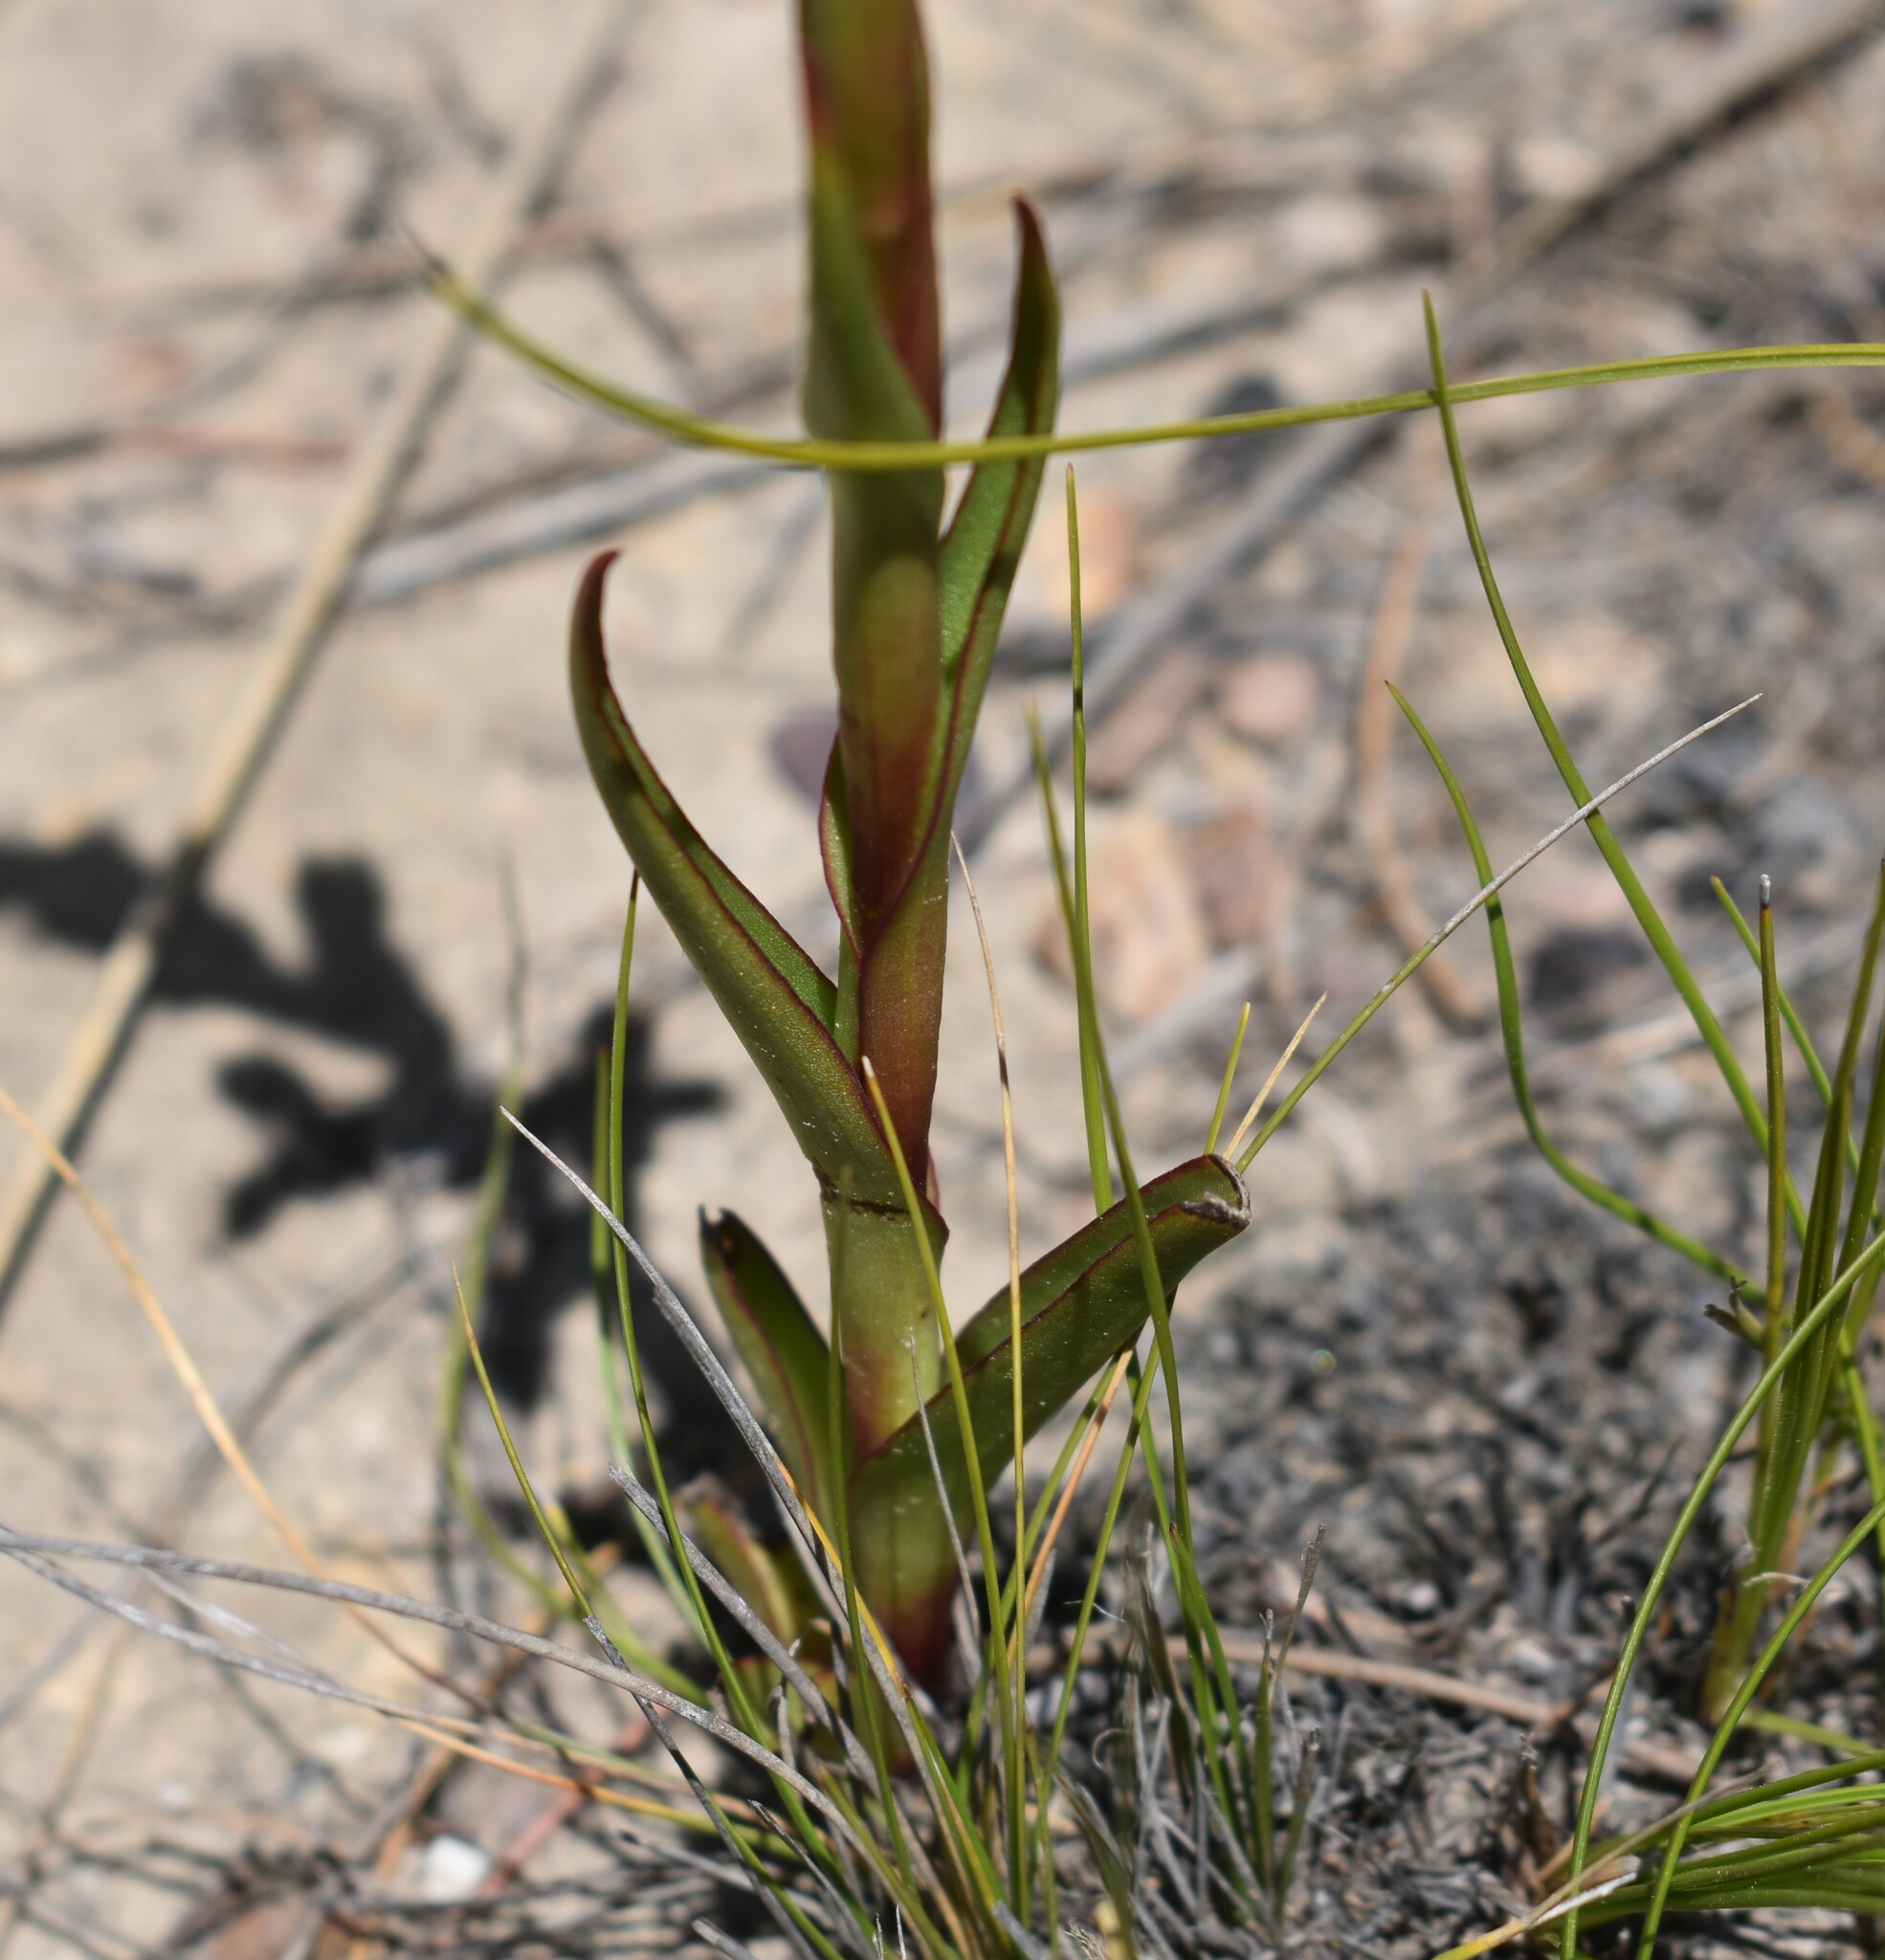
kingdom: Plantae
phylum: Tracheophyta
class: Liliopsida
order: Asparagales
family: Orchidaceae
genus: Disa
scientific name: Disa reticulata
